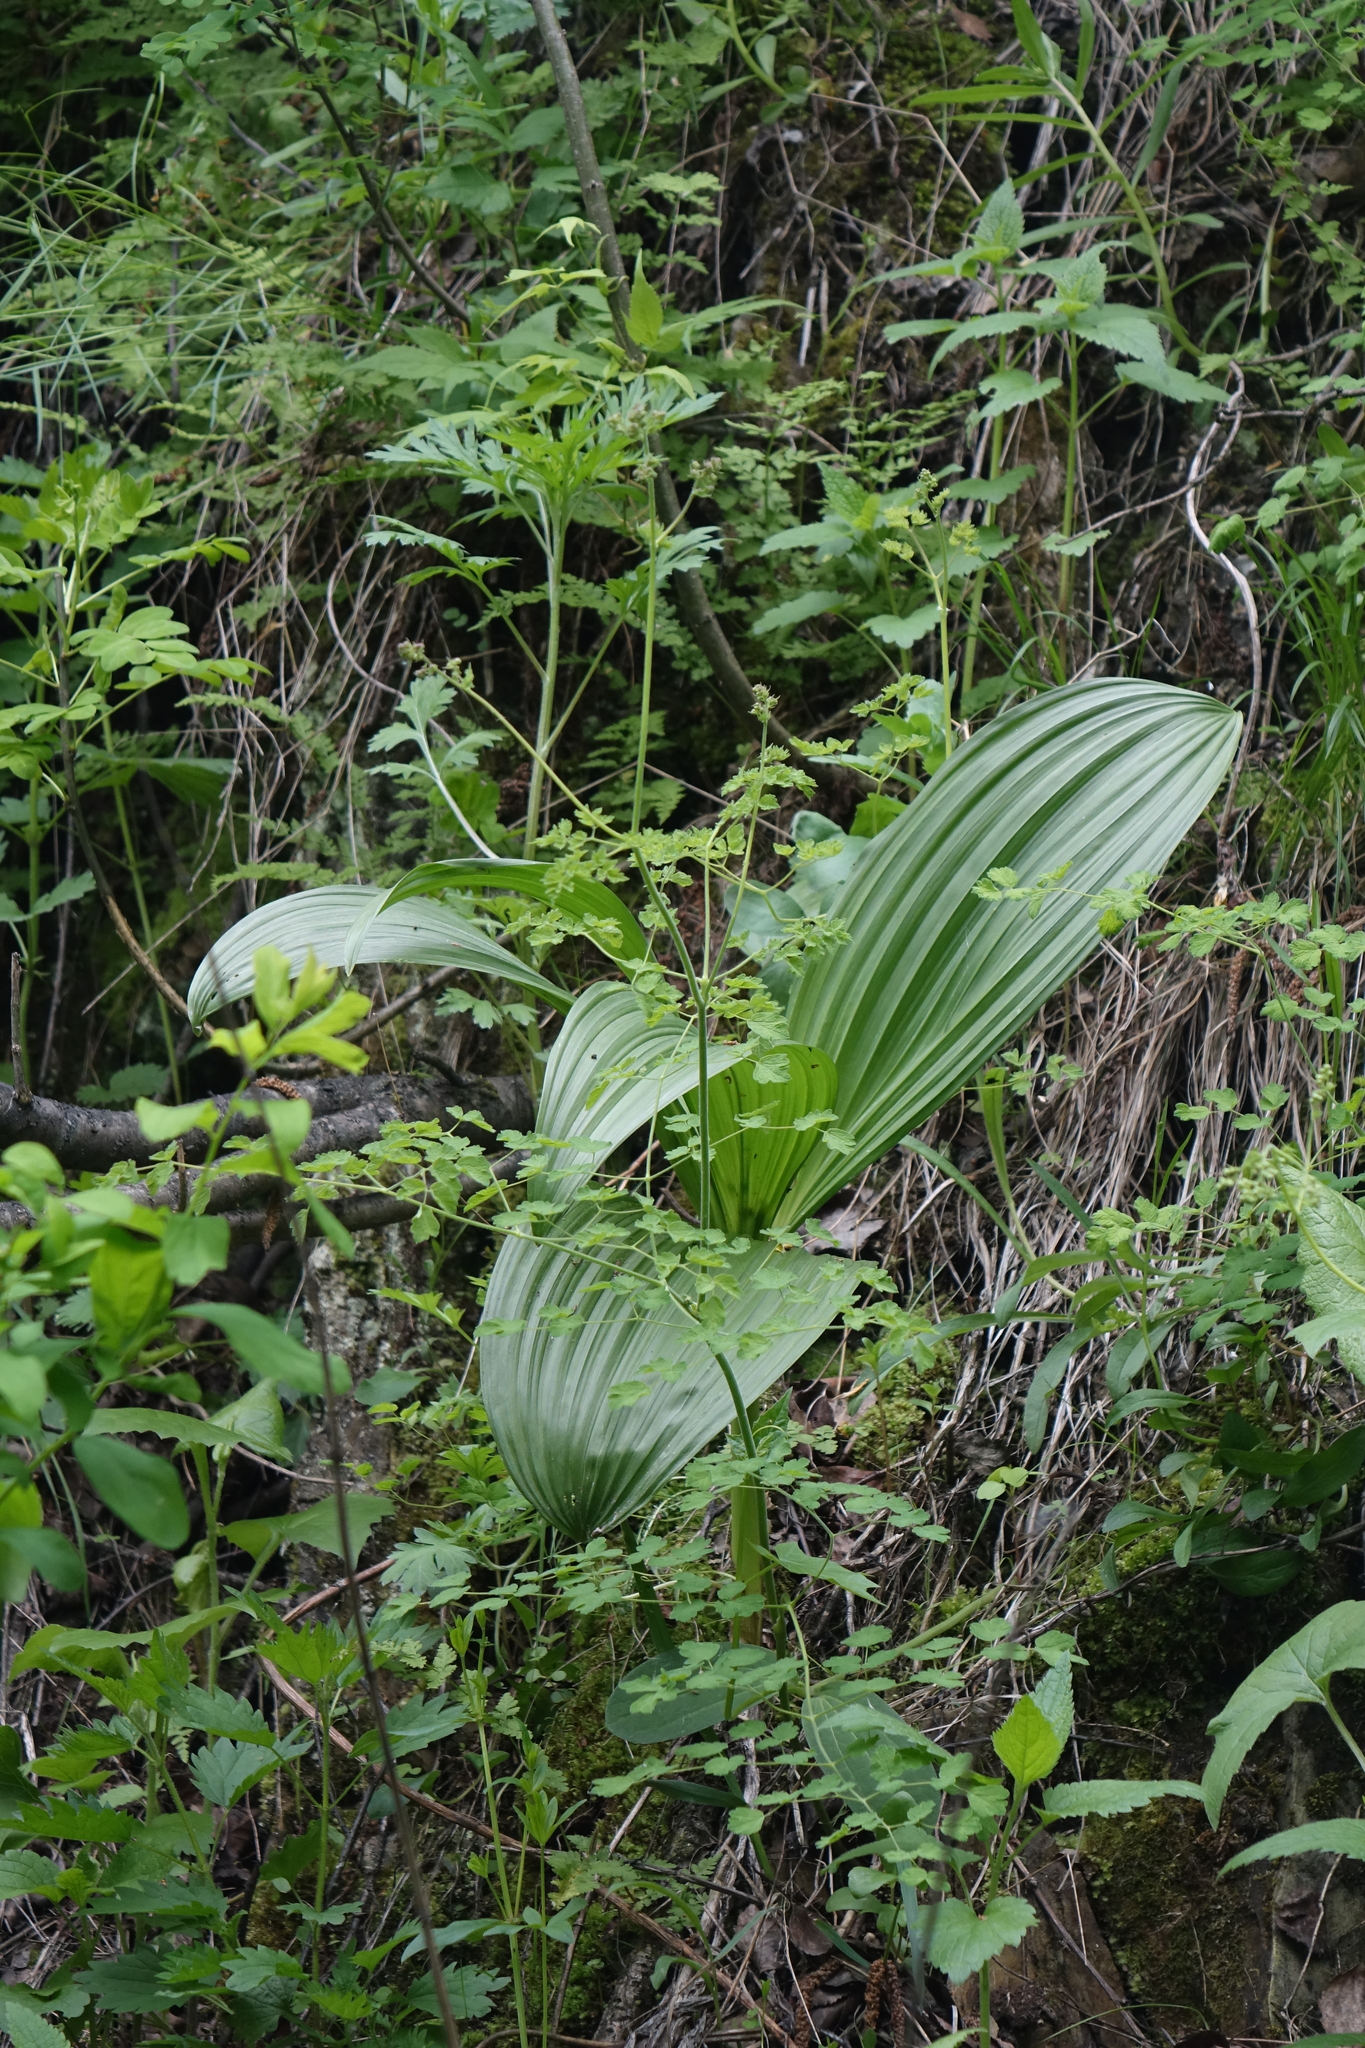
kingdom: Plantae
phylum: Tracheophyta
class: Liliopsida
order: Liliales
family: Melanthiaceae
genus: Veratrum
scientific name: Veratrum nigrum
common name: Black veratrum
